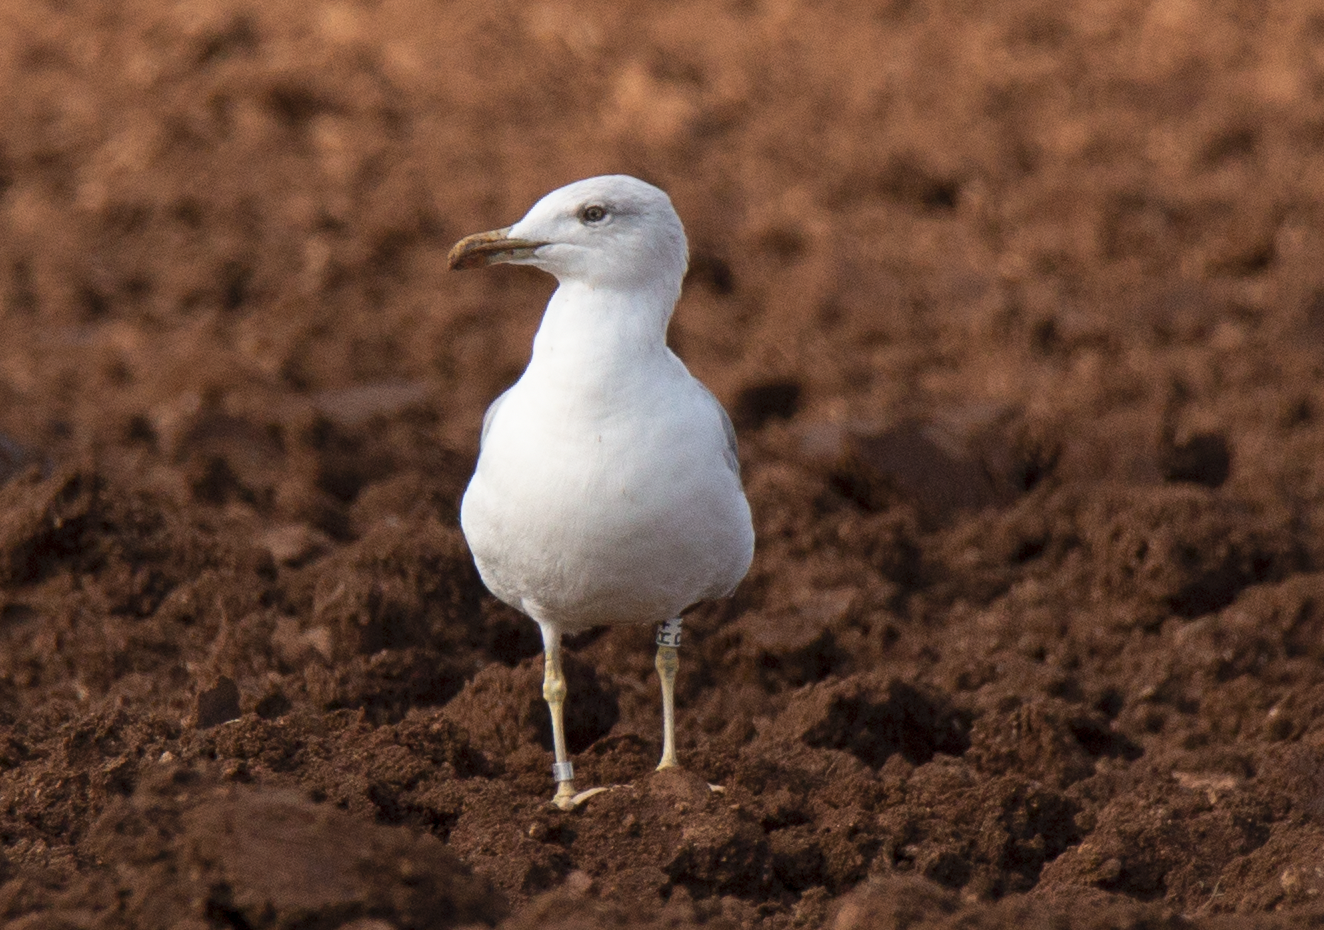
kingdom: Animalia
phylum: Chordata
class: Aves
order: Charadriiformes
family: Laridae
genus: Larus
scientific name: Larus michahellis
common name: Yellow-legged gull
